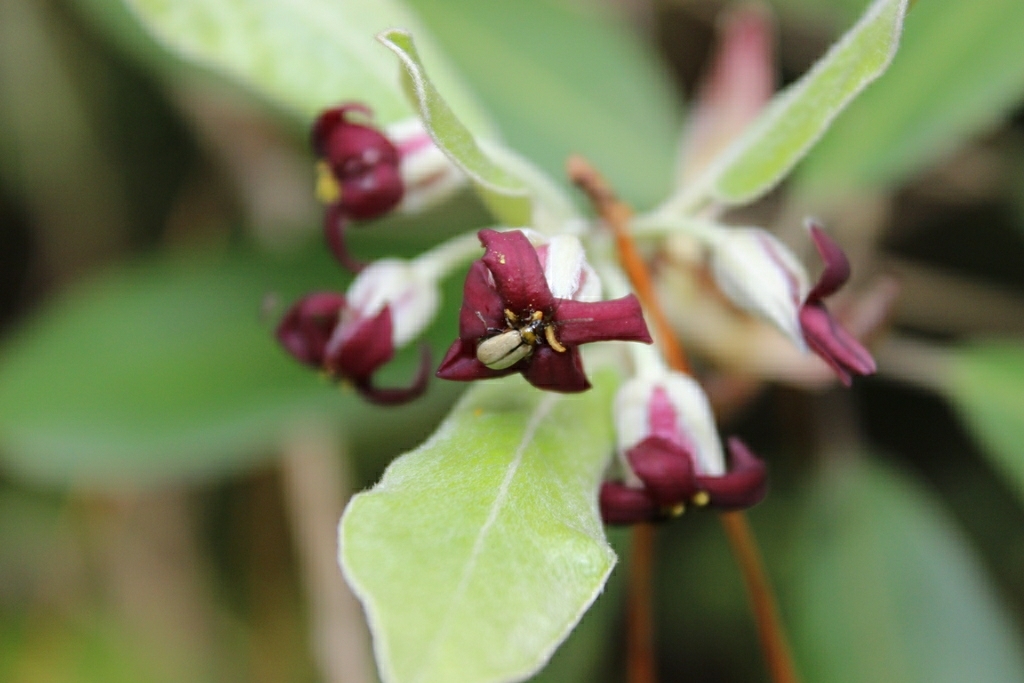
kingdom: Animalia
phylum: Arthropoda
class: Insecta
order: Coleoptera
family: Chrysomelidae
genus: Adoxia
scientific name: Adoxia
